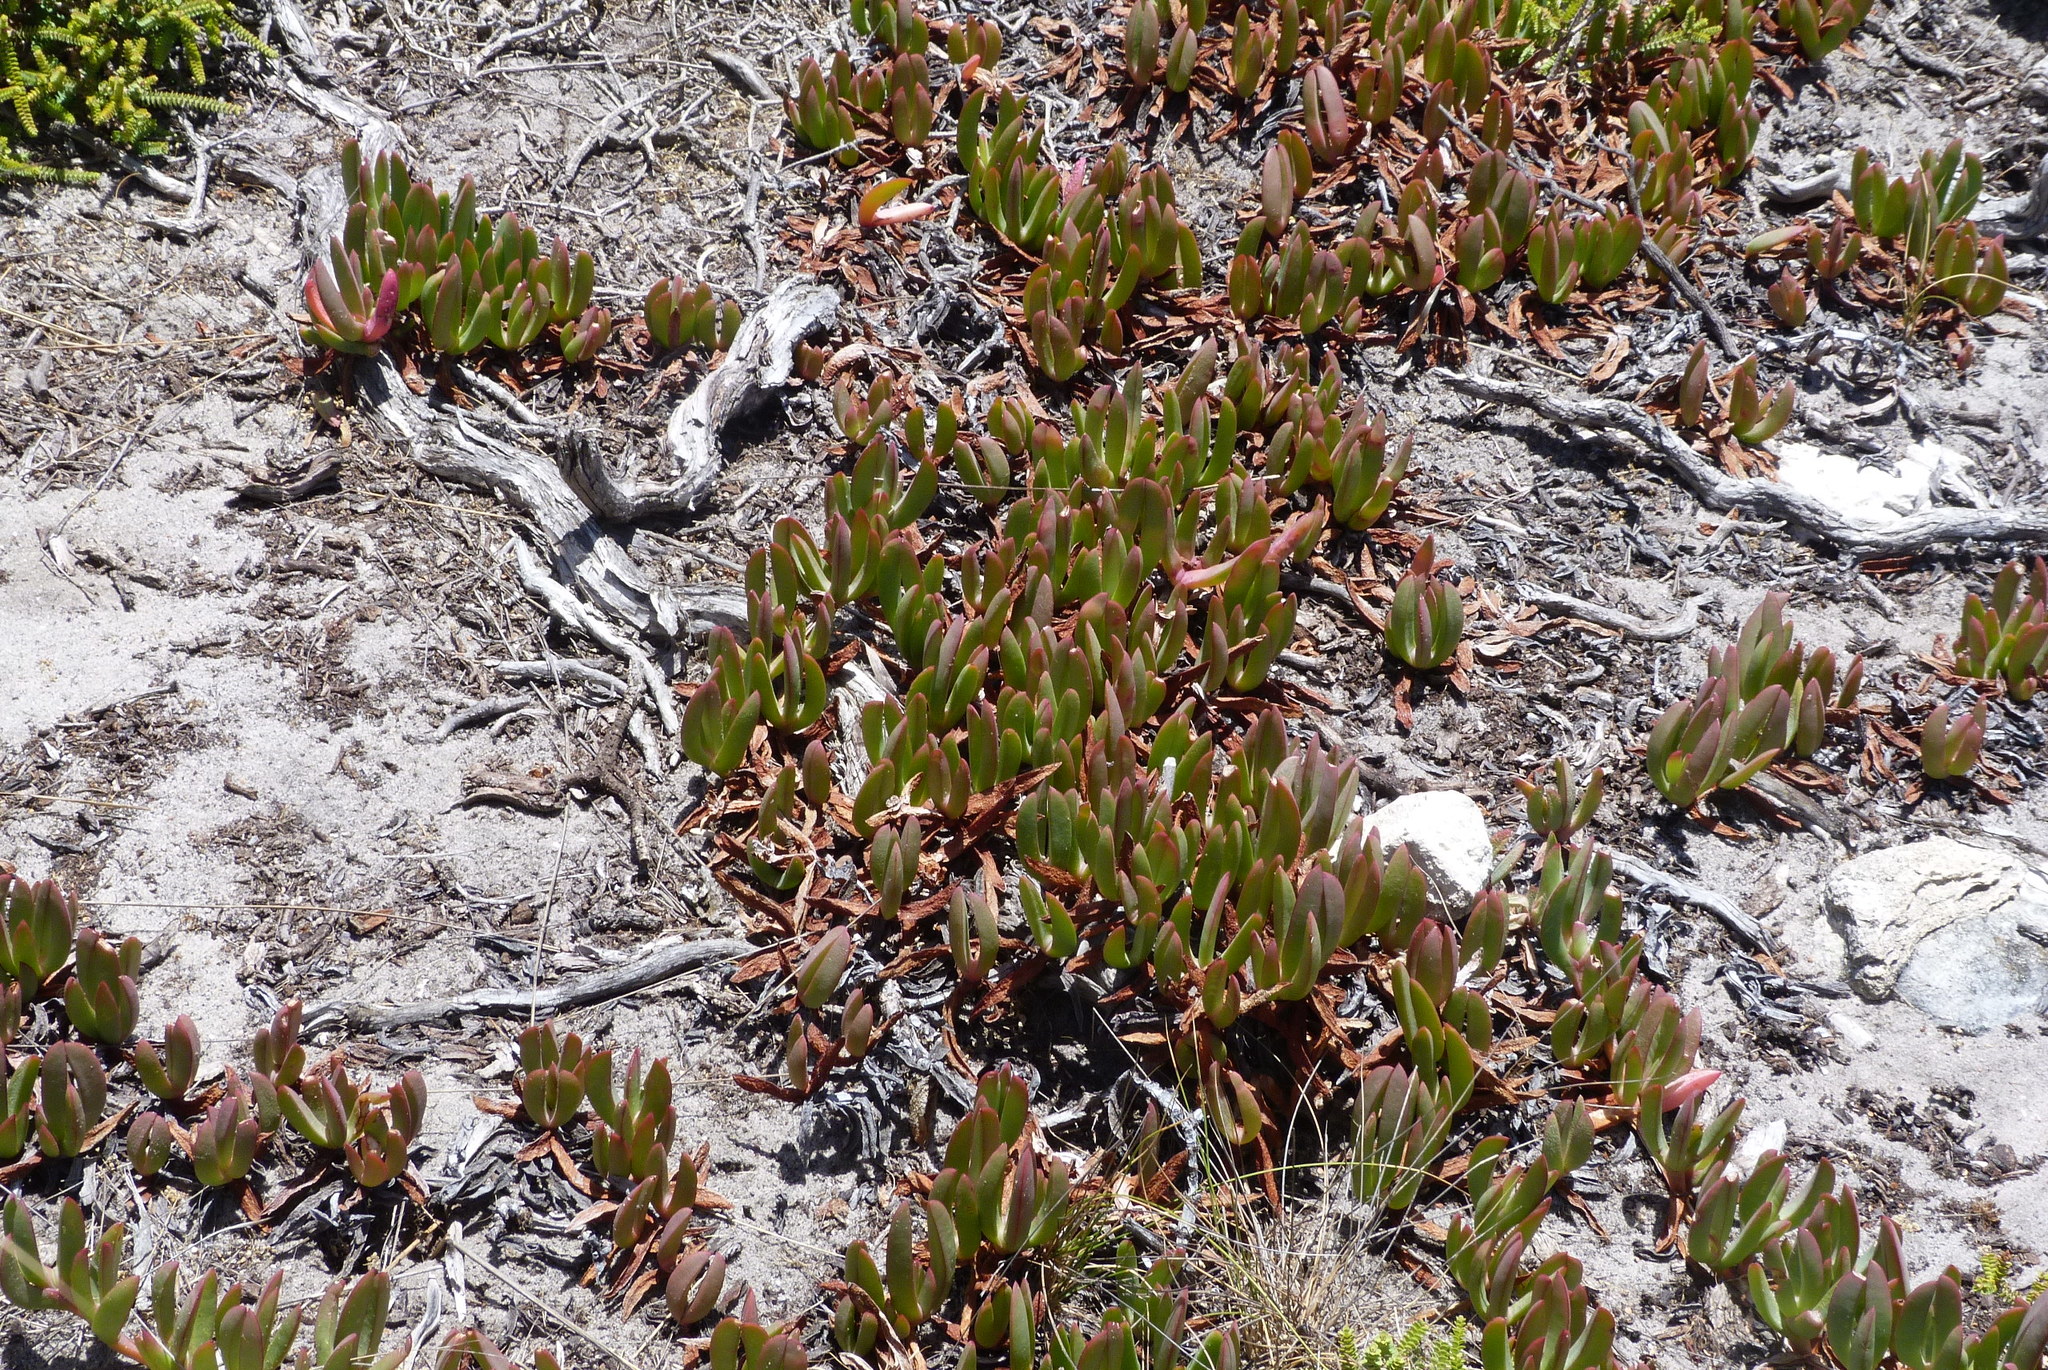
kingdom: Plantae
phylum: Tracheophyta
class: Magnoliopsida
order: Caryophyllales
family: Aizoaceae
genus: Carpobrotus
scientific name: Carpobrotus rossii
